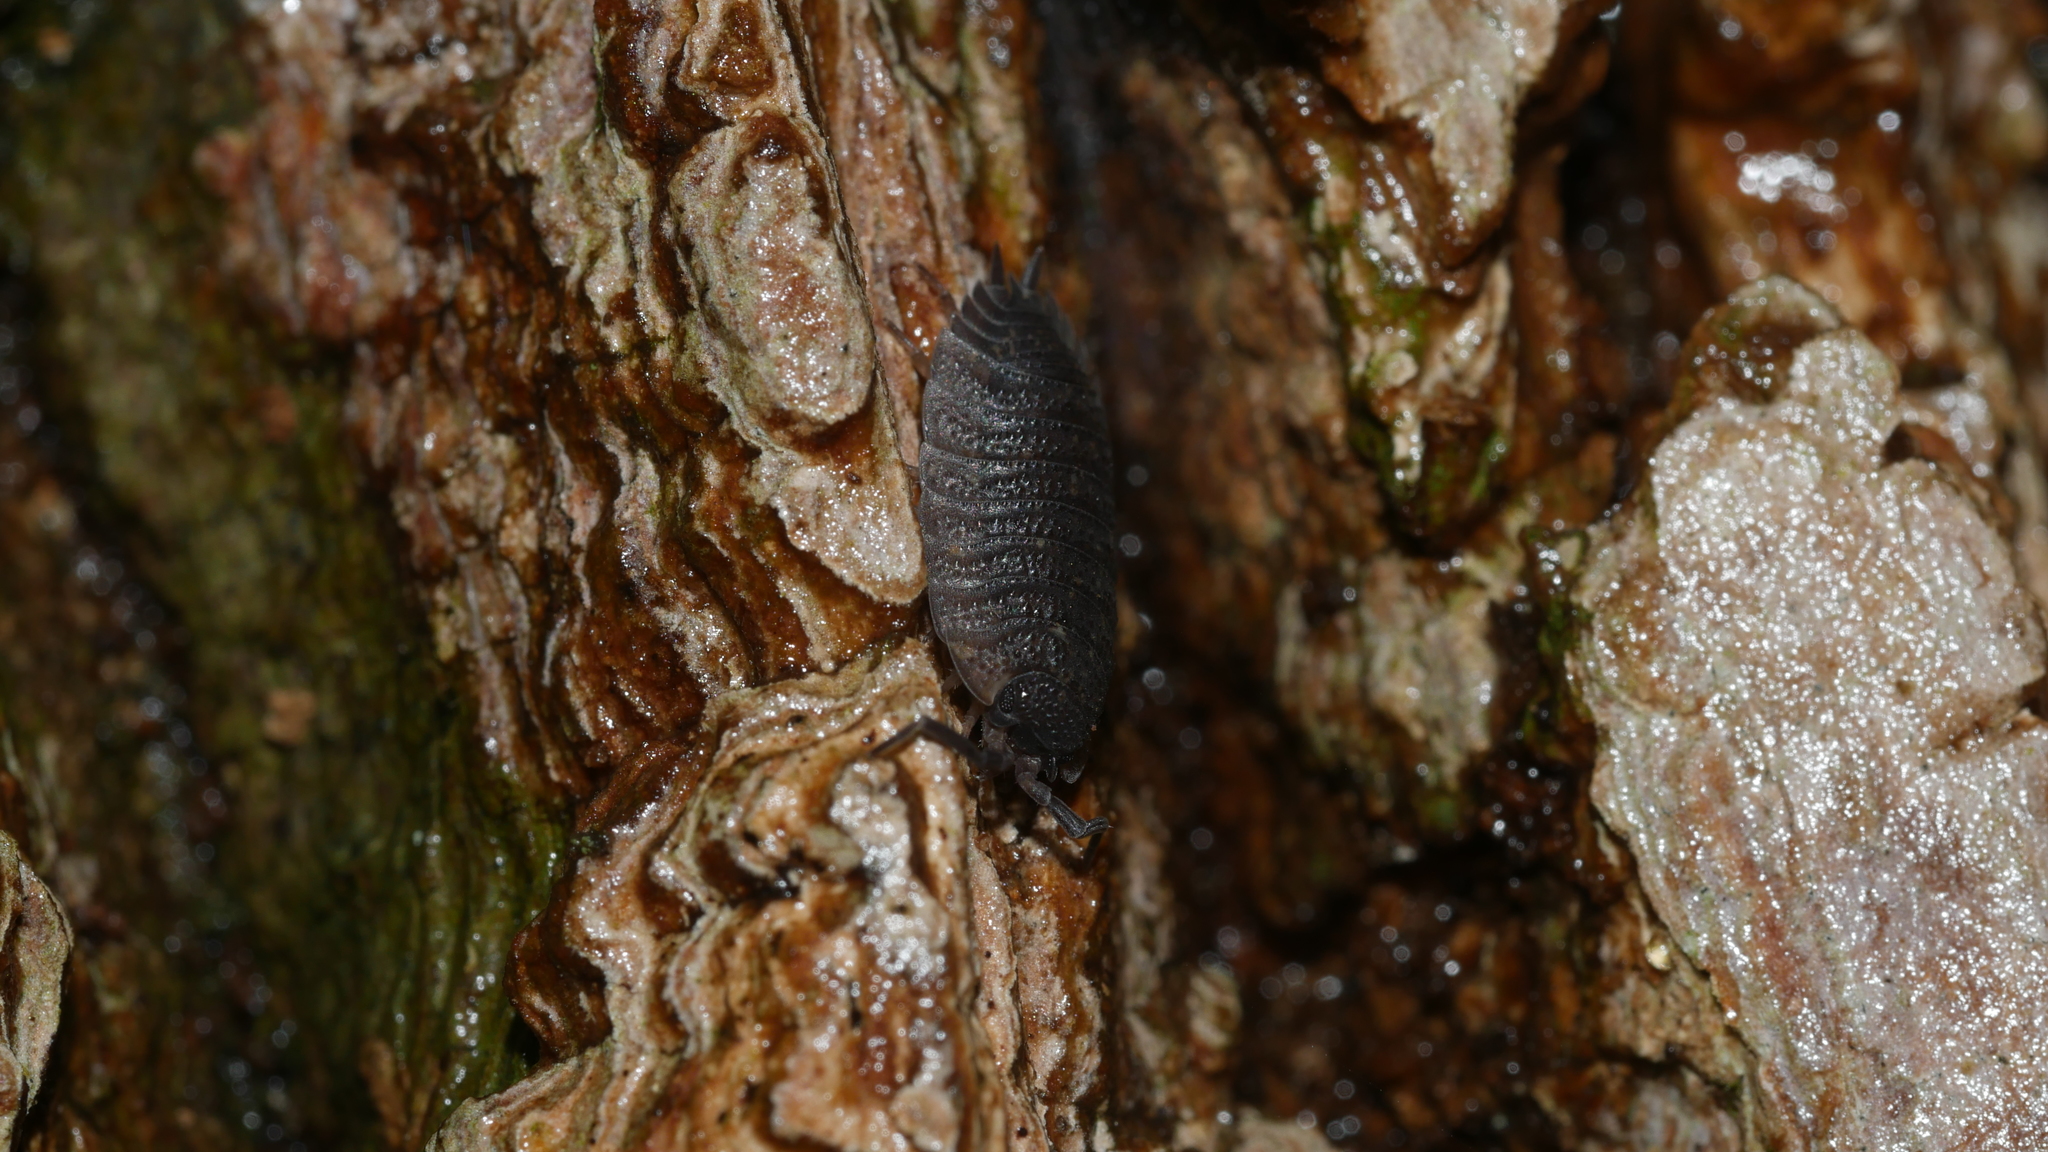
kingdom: Animalia
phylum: Arthropoda
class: Malacostraca
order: Isopoda
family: Porcellionidae
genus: Porcellio
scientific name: Porcellio scaber
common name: Common rough woodlouse
